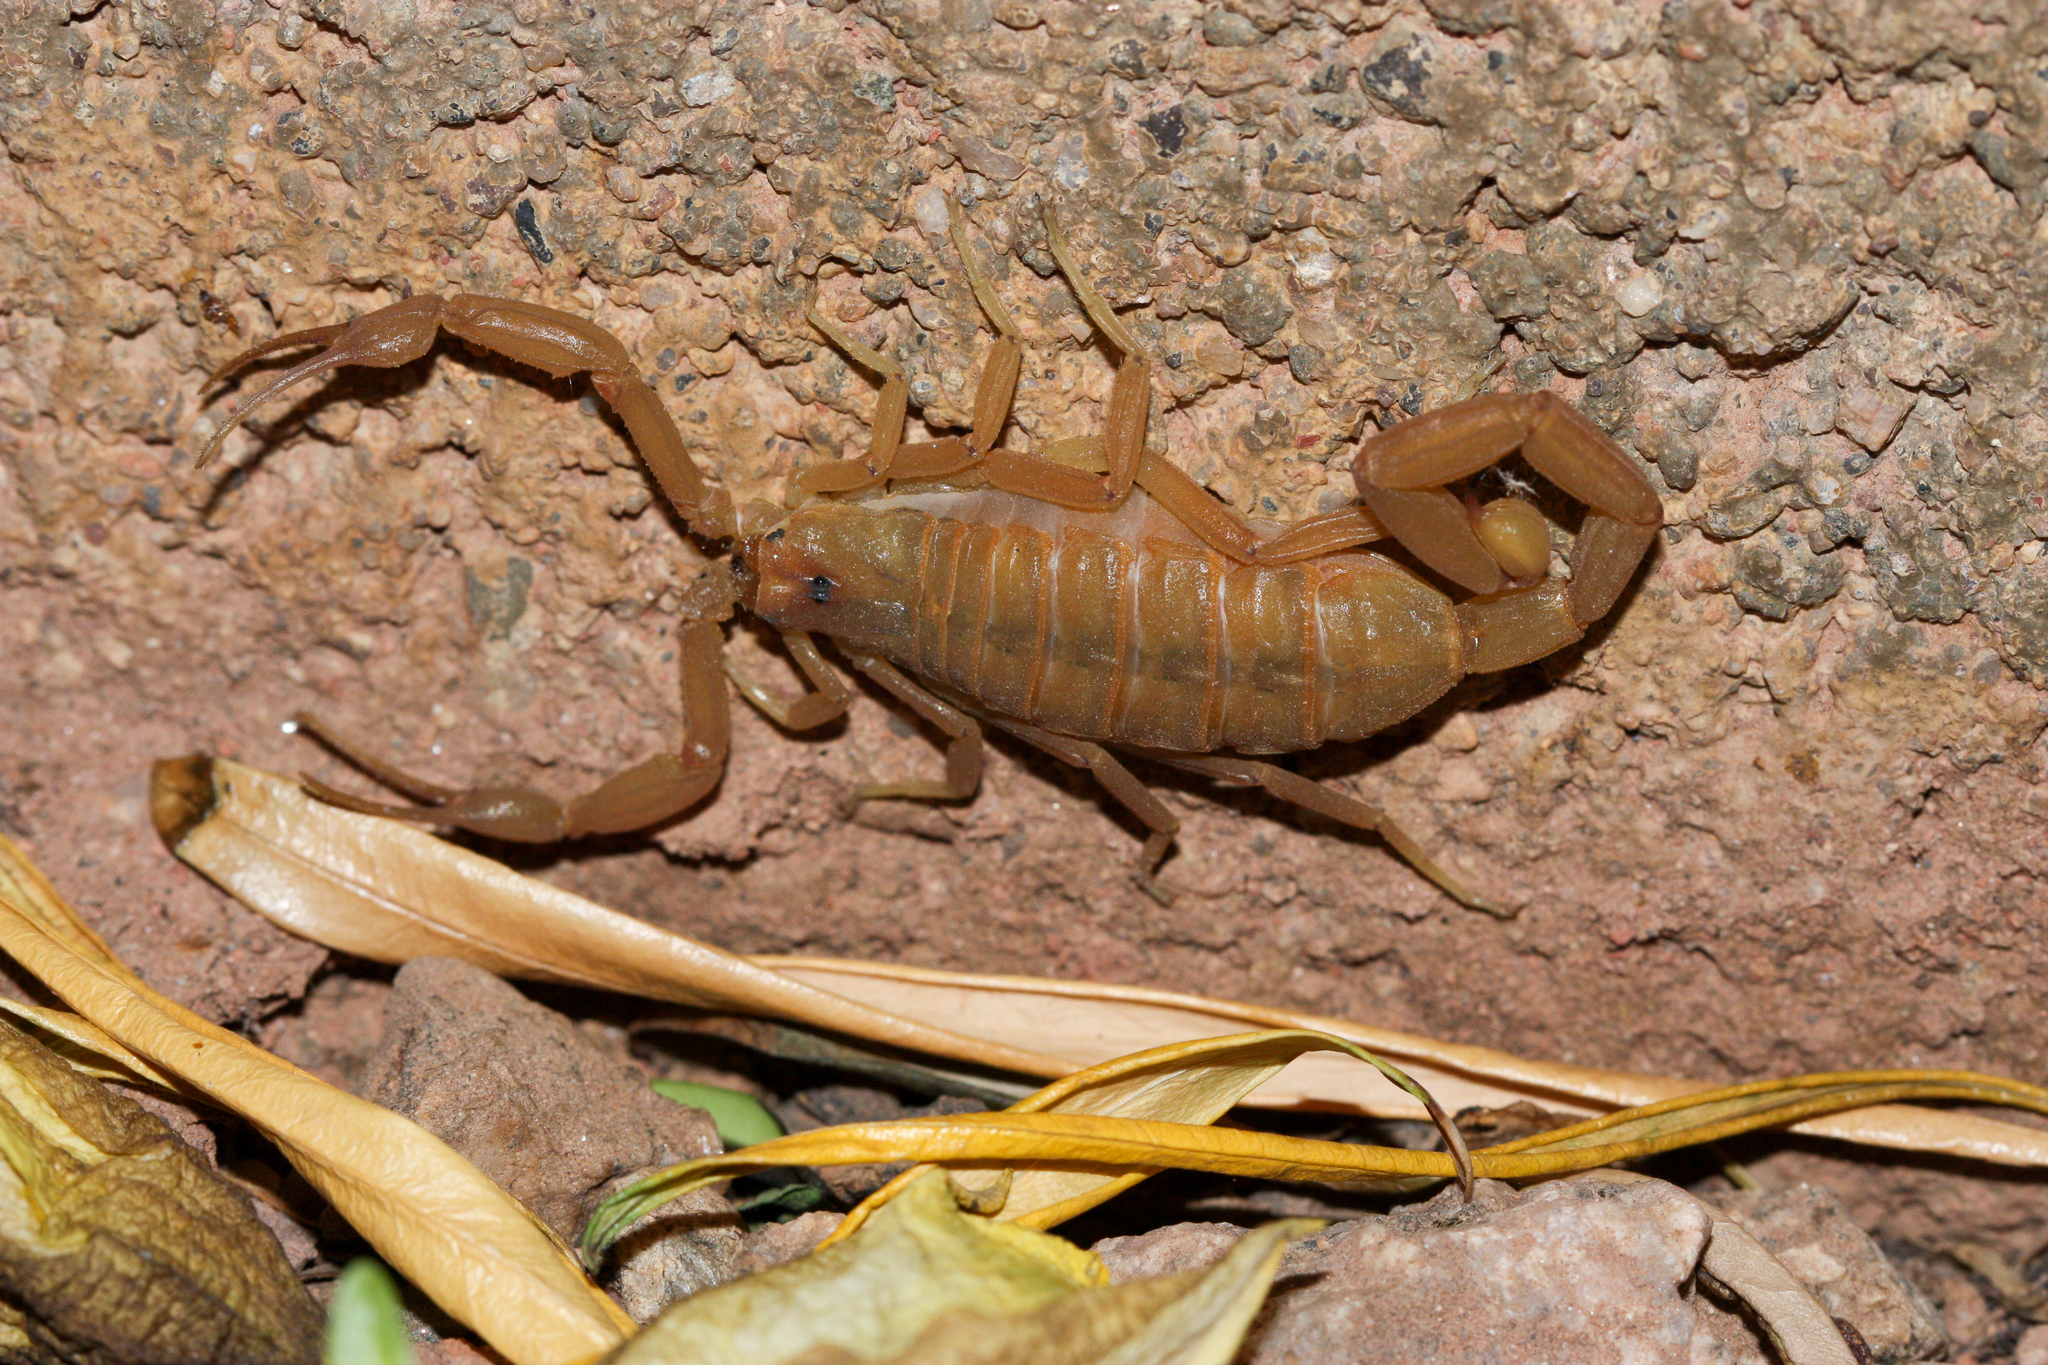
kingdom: Animalia
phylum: Arthropoda
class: Arachnida
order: Scorpiones
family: Buthidae
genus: Centruroides
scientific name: Centruroides sculpturatus
